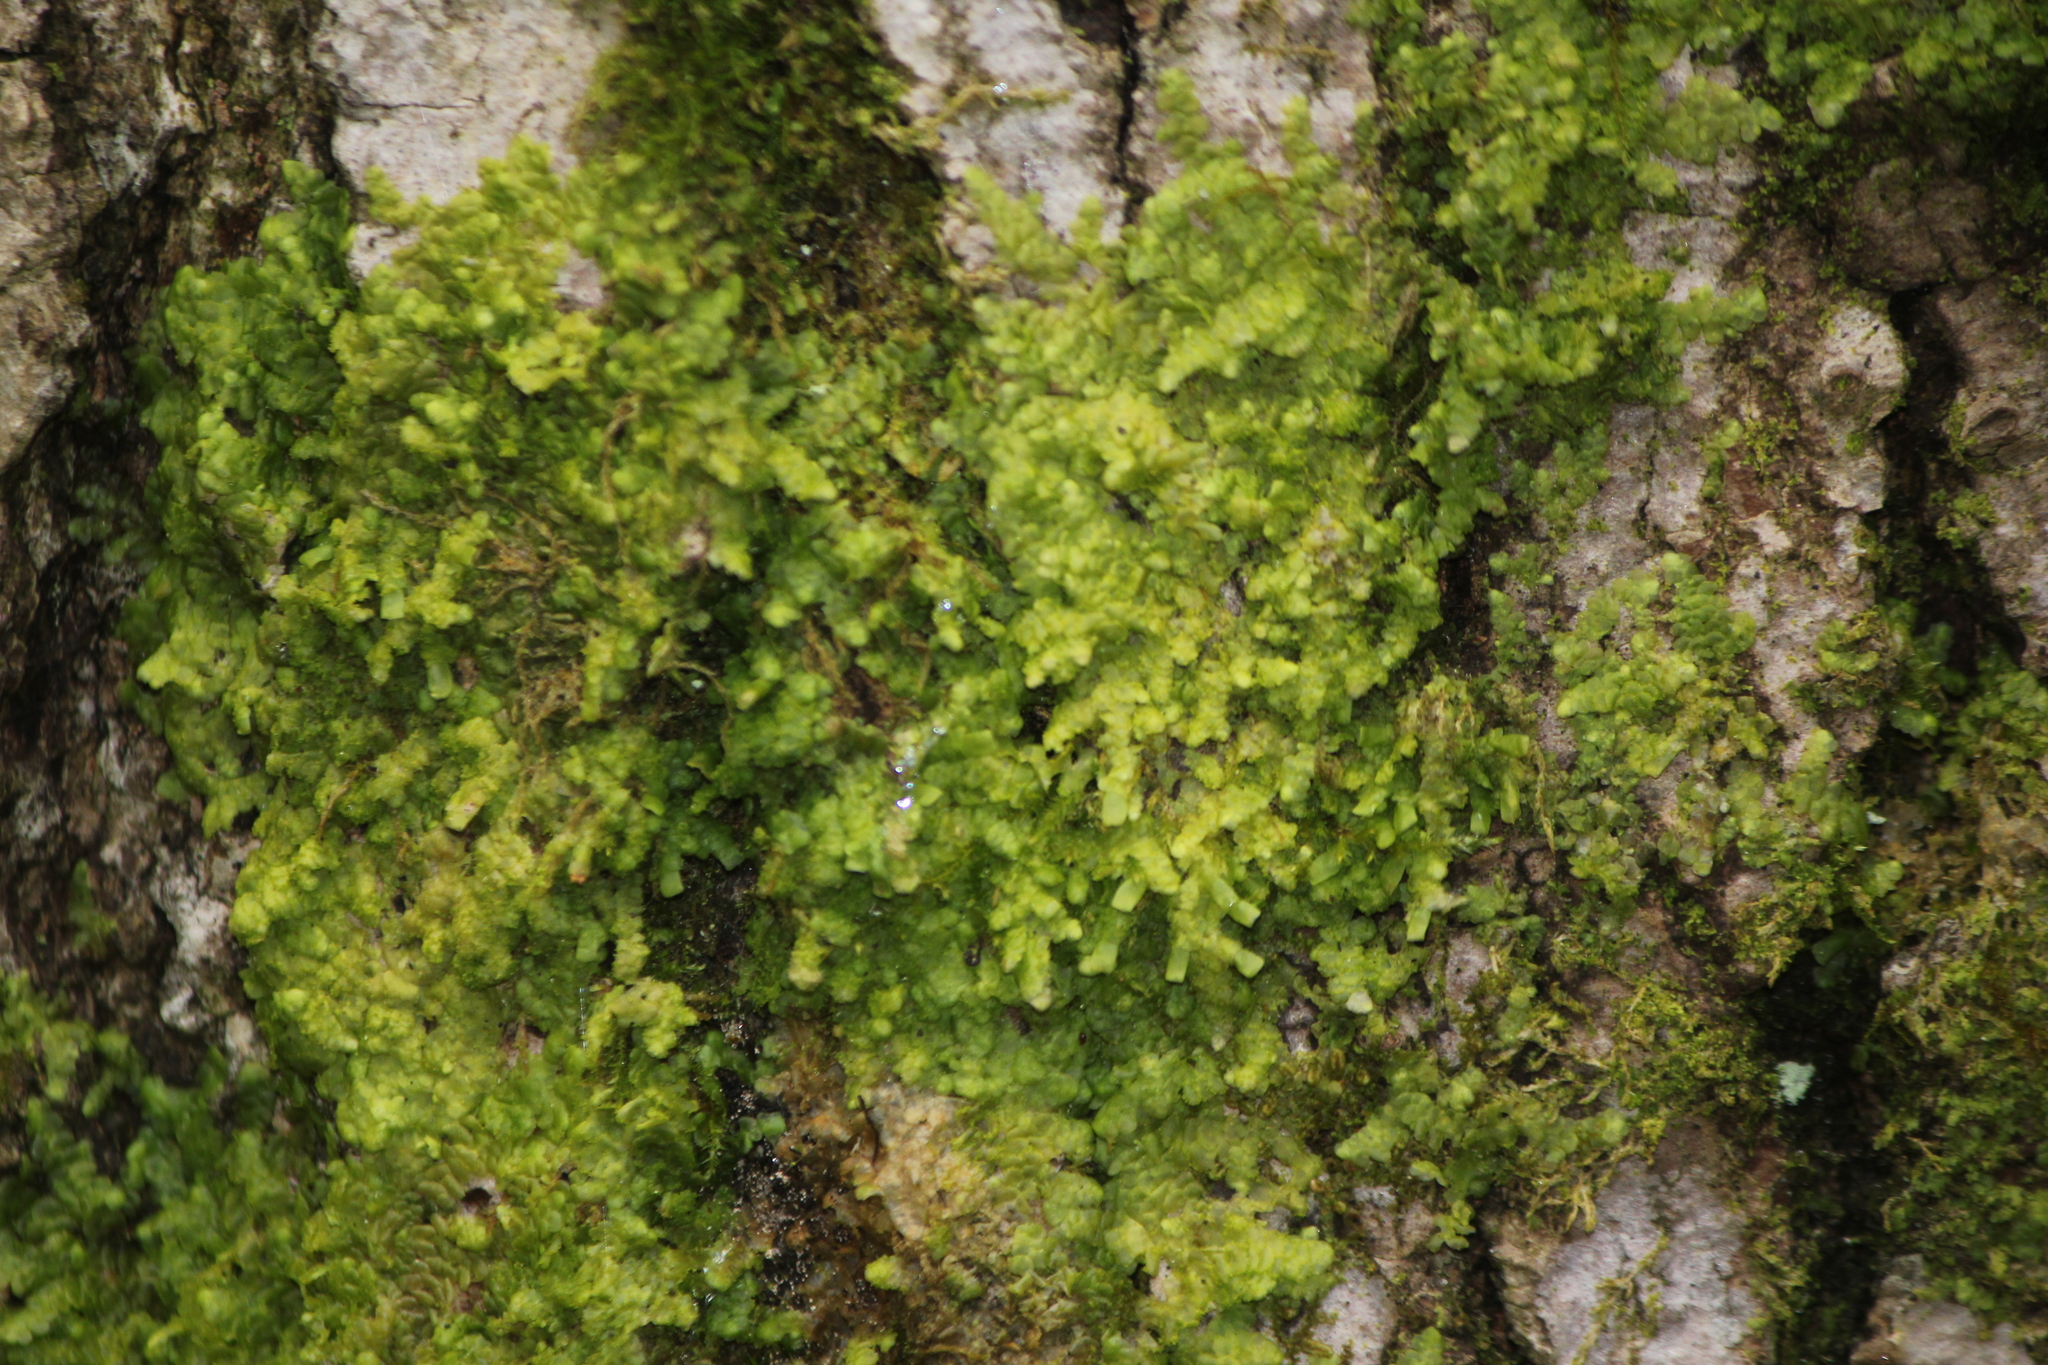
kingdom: Plantae
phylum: Marchantiophyta
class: Jungermanniopsida
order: Porellales
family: Radulaceae
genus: Radula
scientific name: Radula complanata
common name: Flat-leaved scalewort
